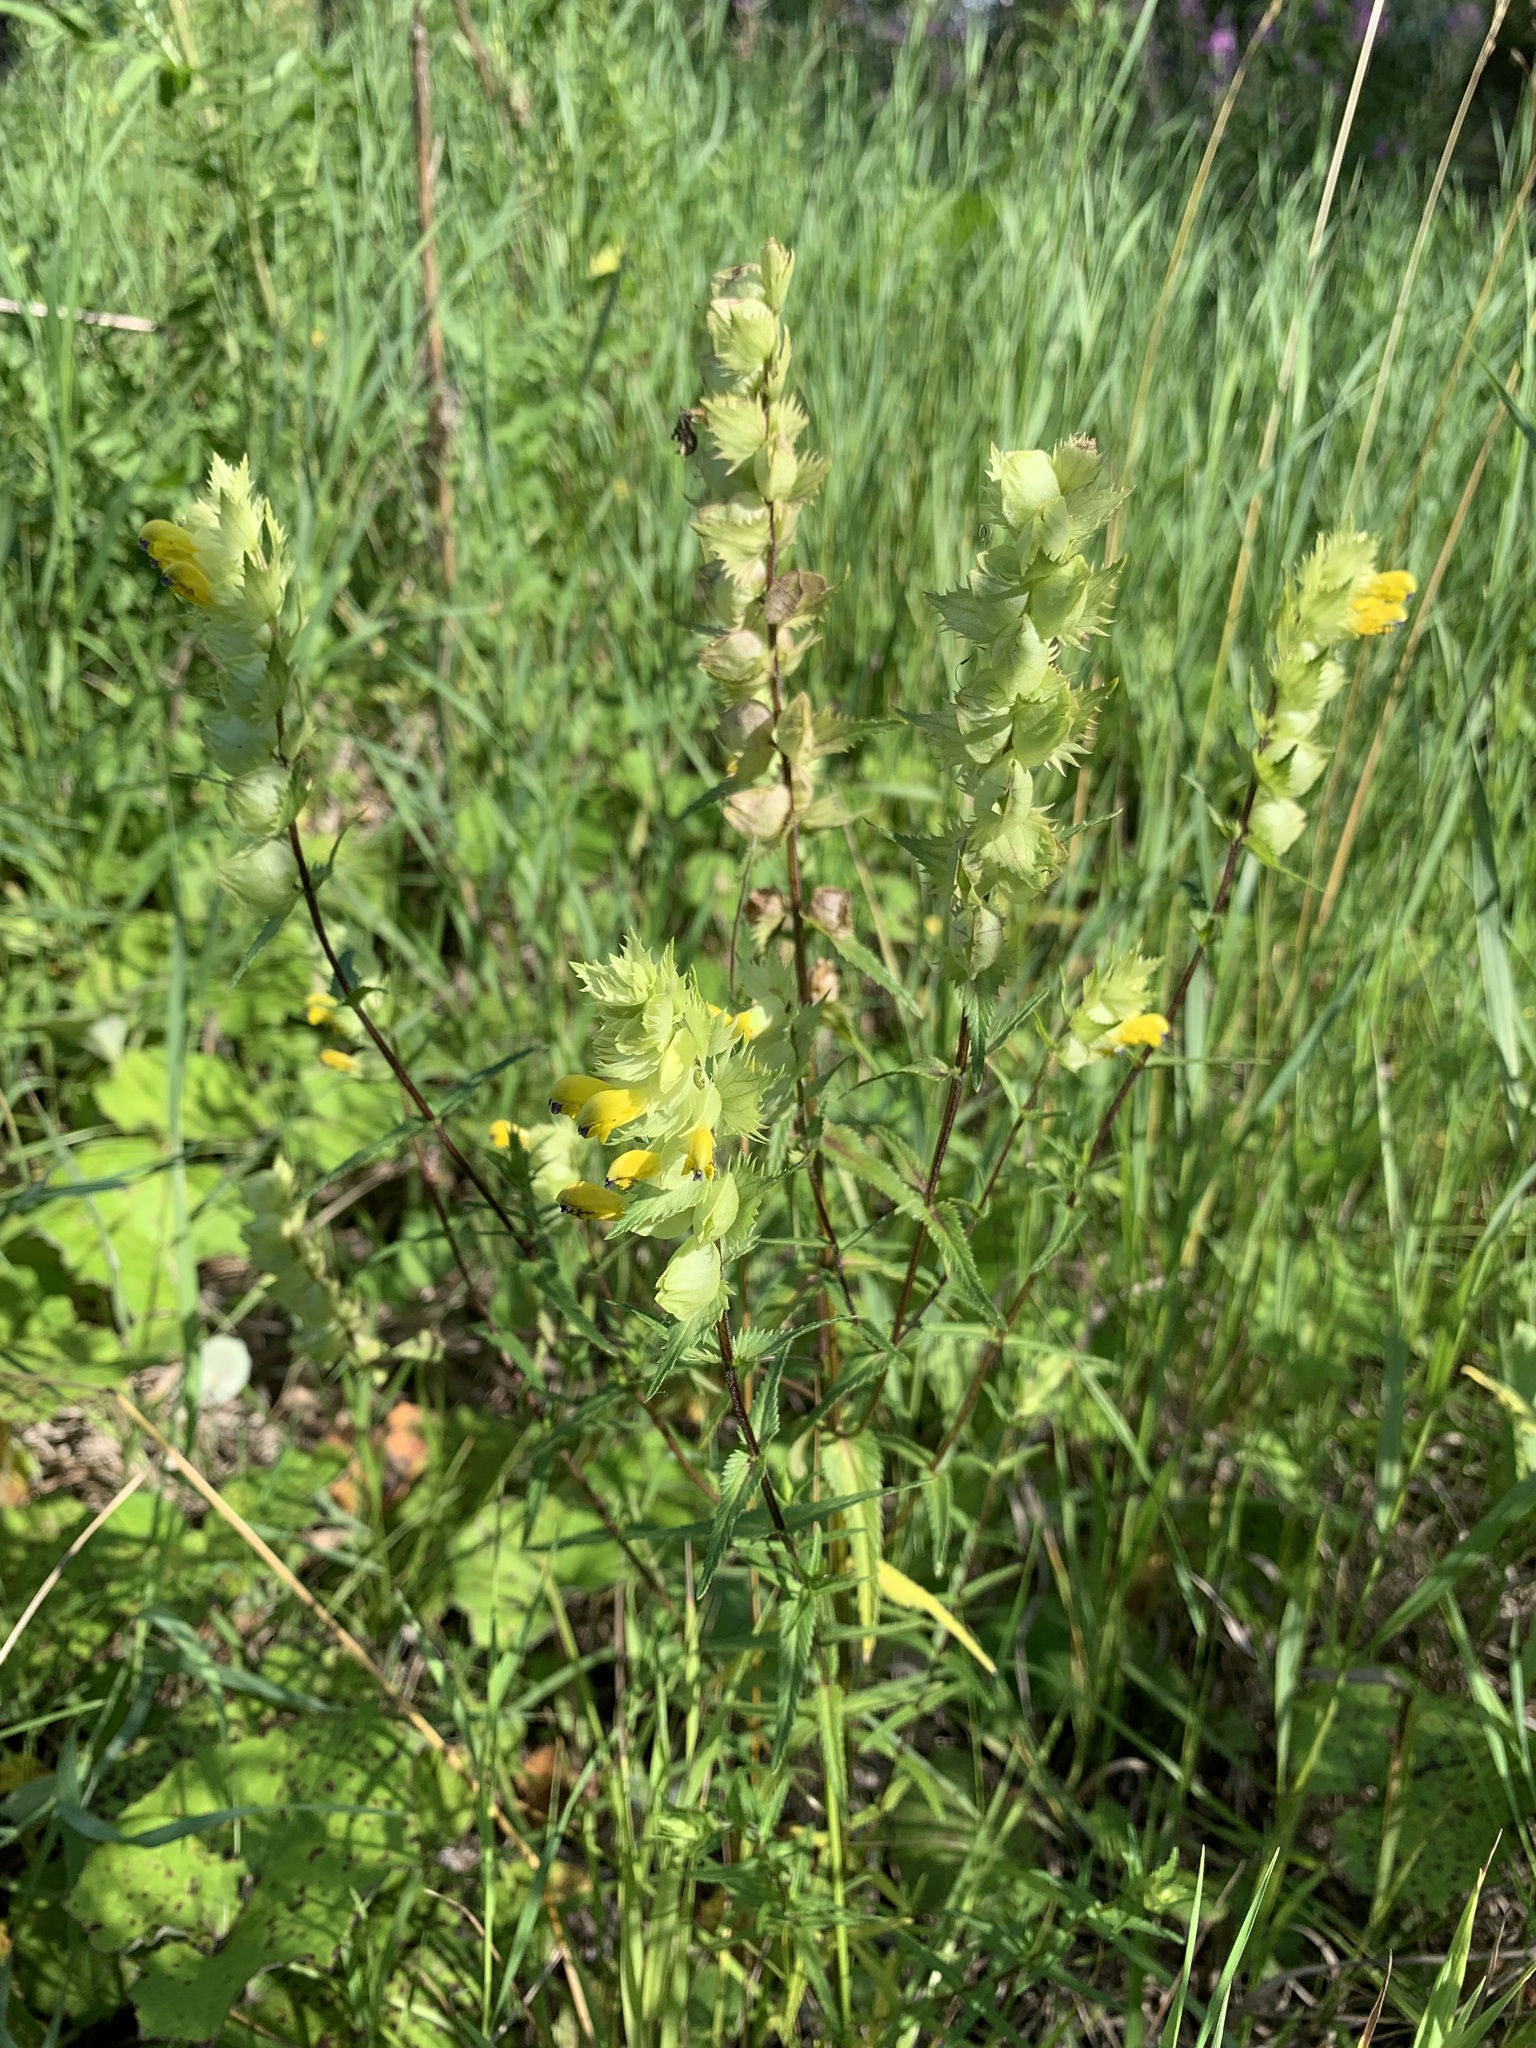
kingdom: Plantae
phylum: Tracheophyta
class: Magnoliopsida
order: Lamiales
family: Orobanchaceae
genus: Rhinanthus
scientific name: Rhinanthus serotinus
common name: Late-flowering yellow rattle
